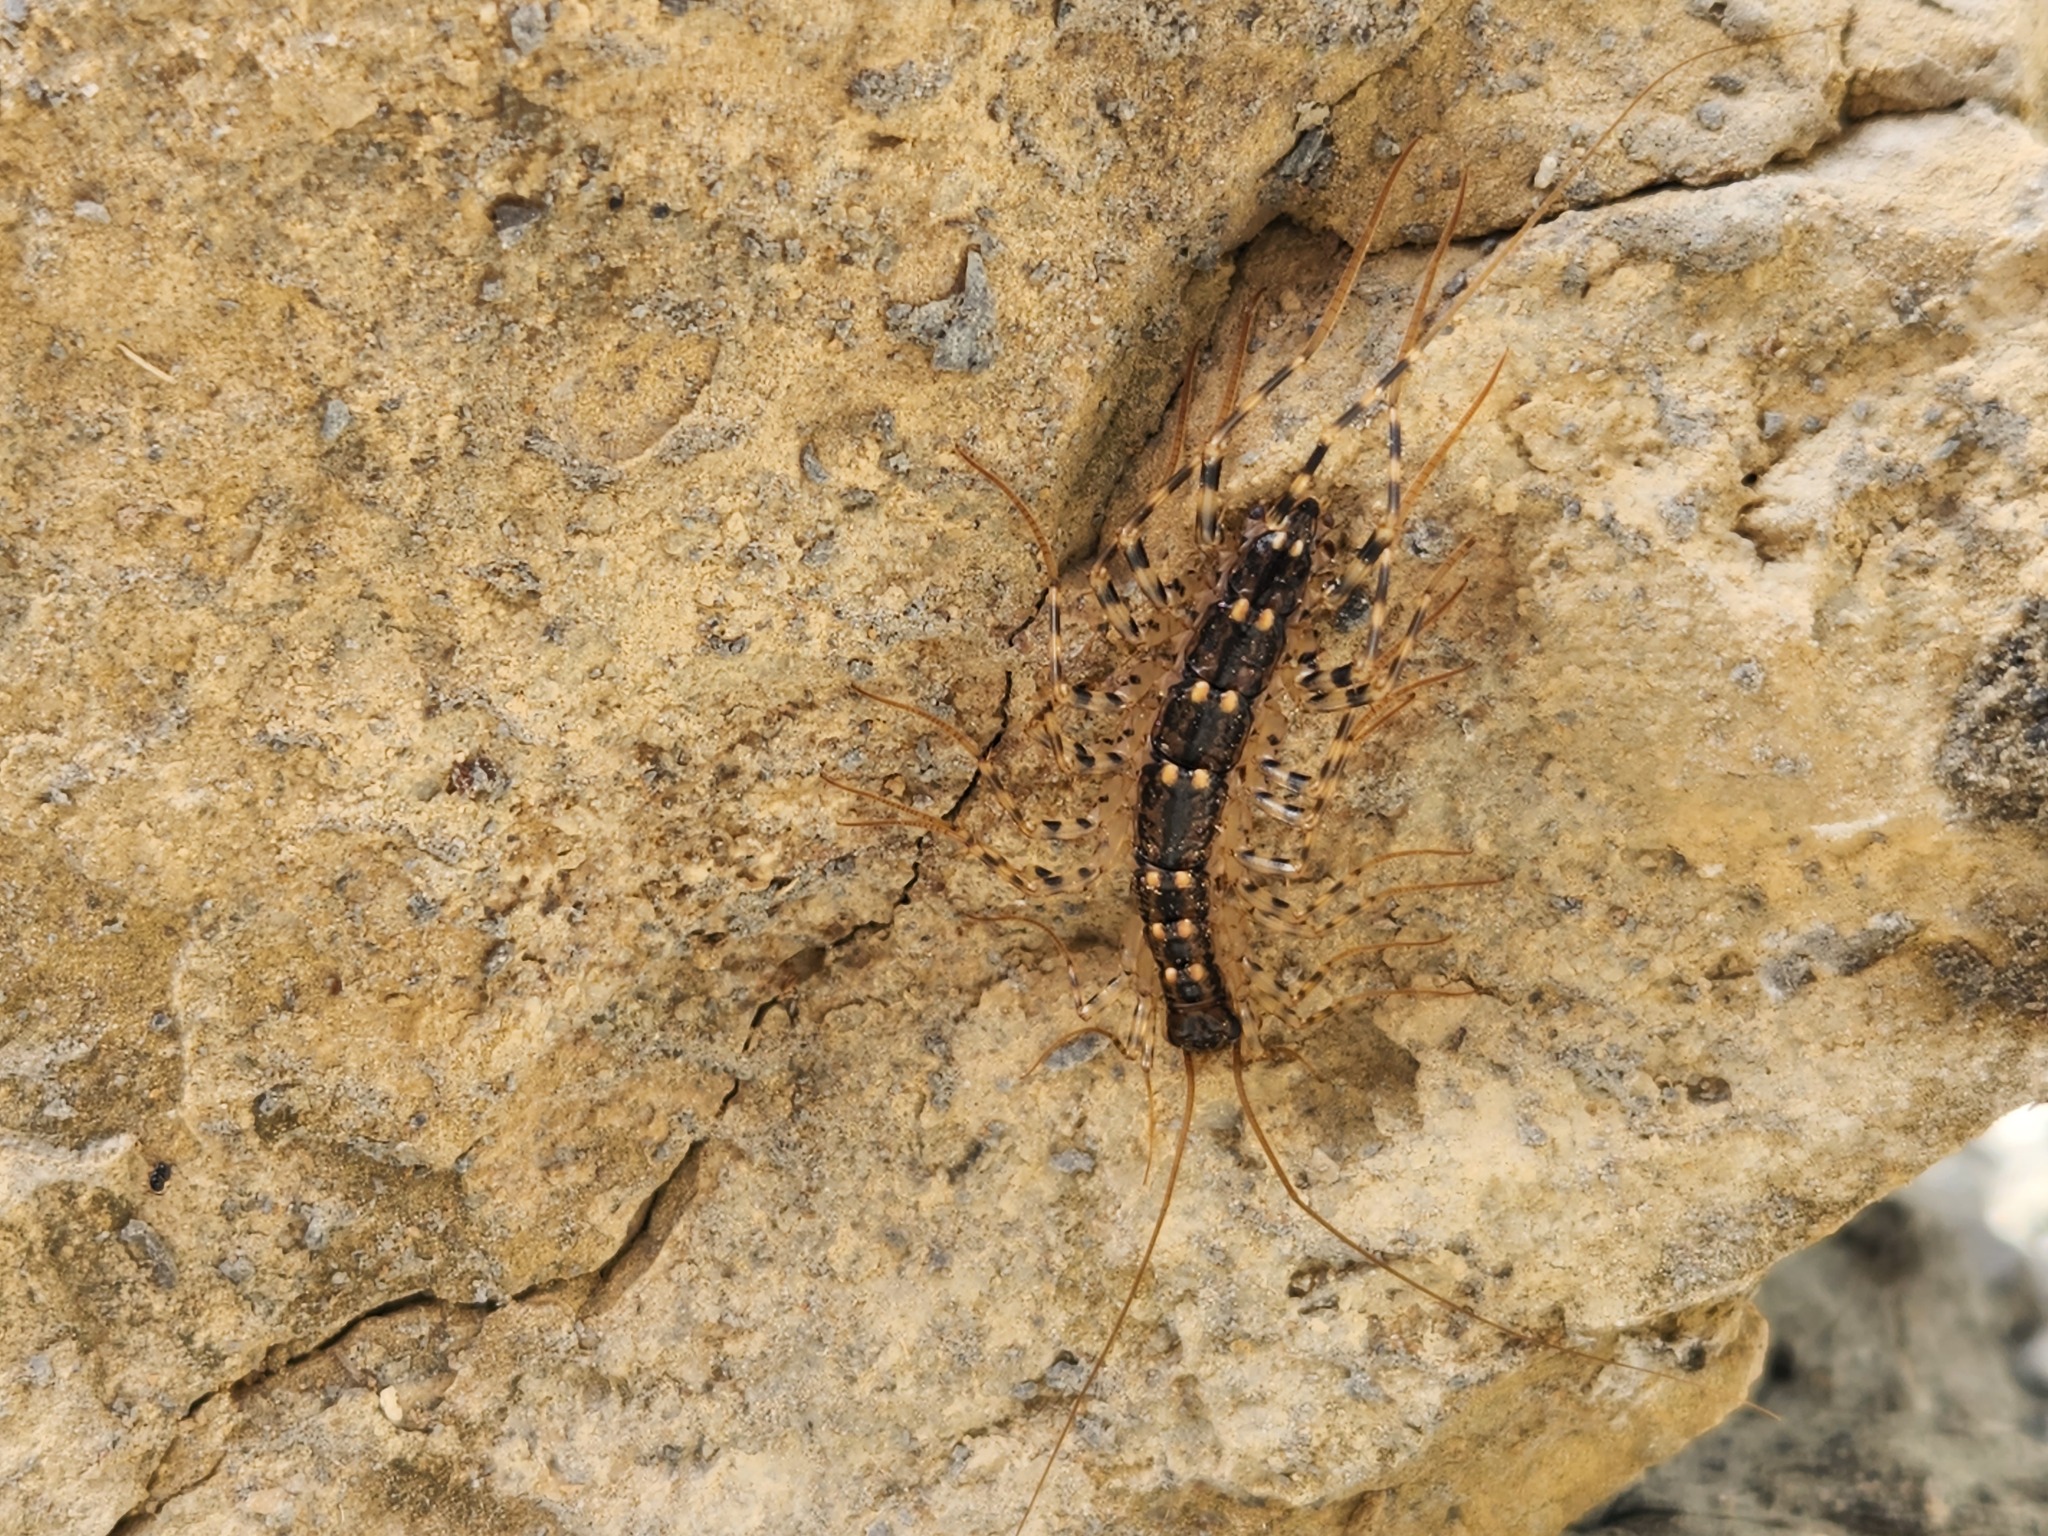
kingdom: Animalia
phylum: Arthropoda
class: Chilopoda
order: Scutigeromorpha
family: Scutigeridae
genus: Thereuonema
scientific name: Thereuonema tuberculata
